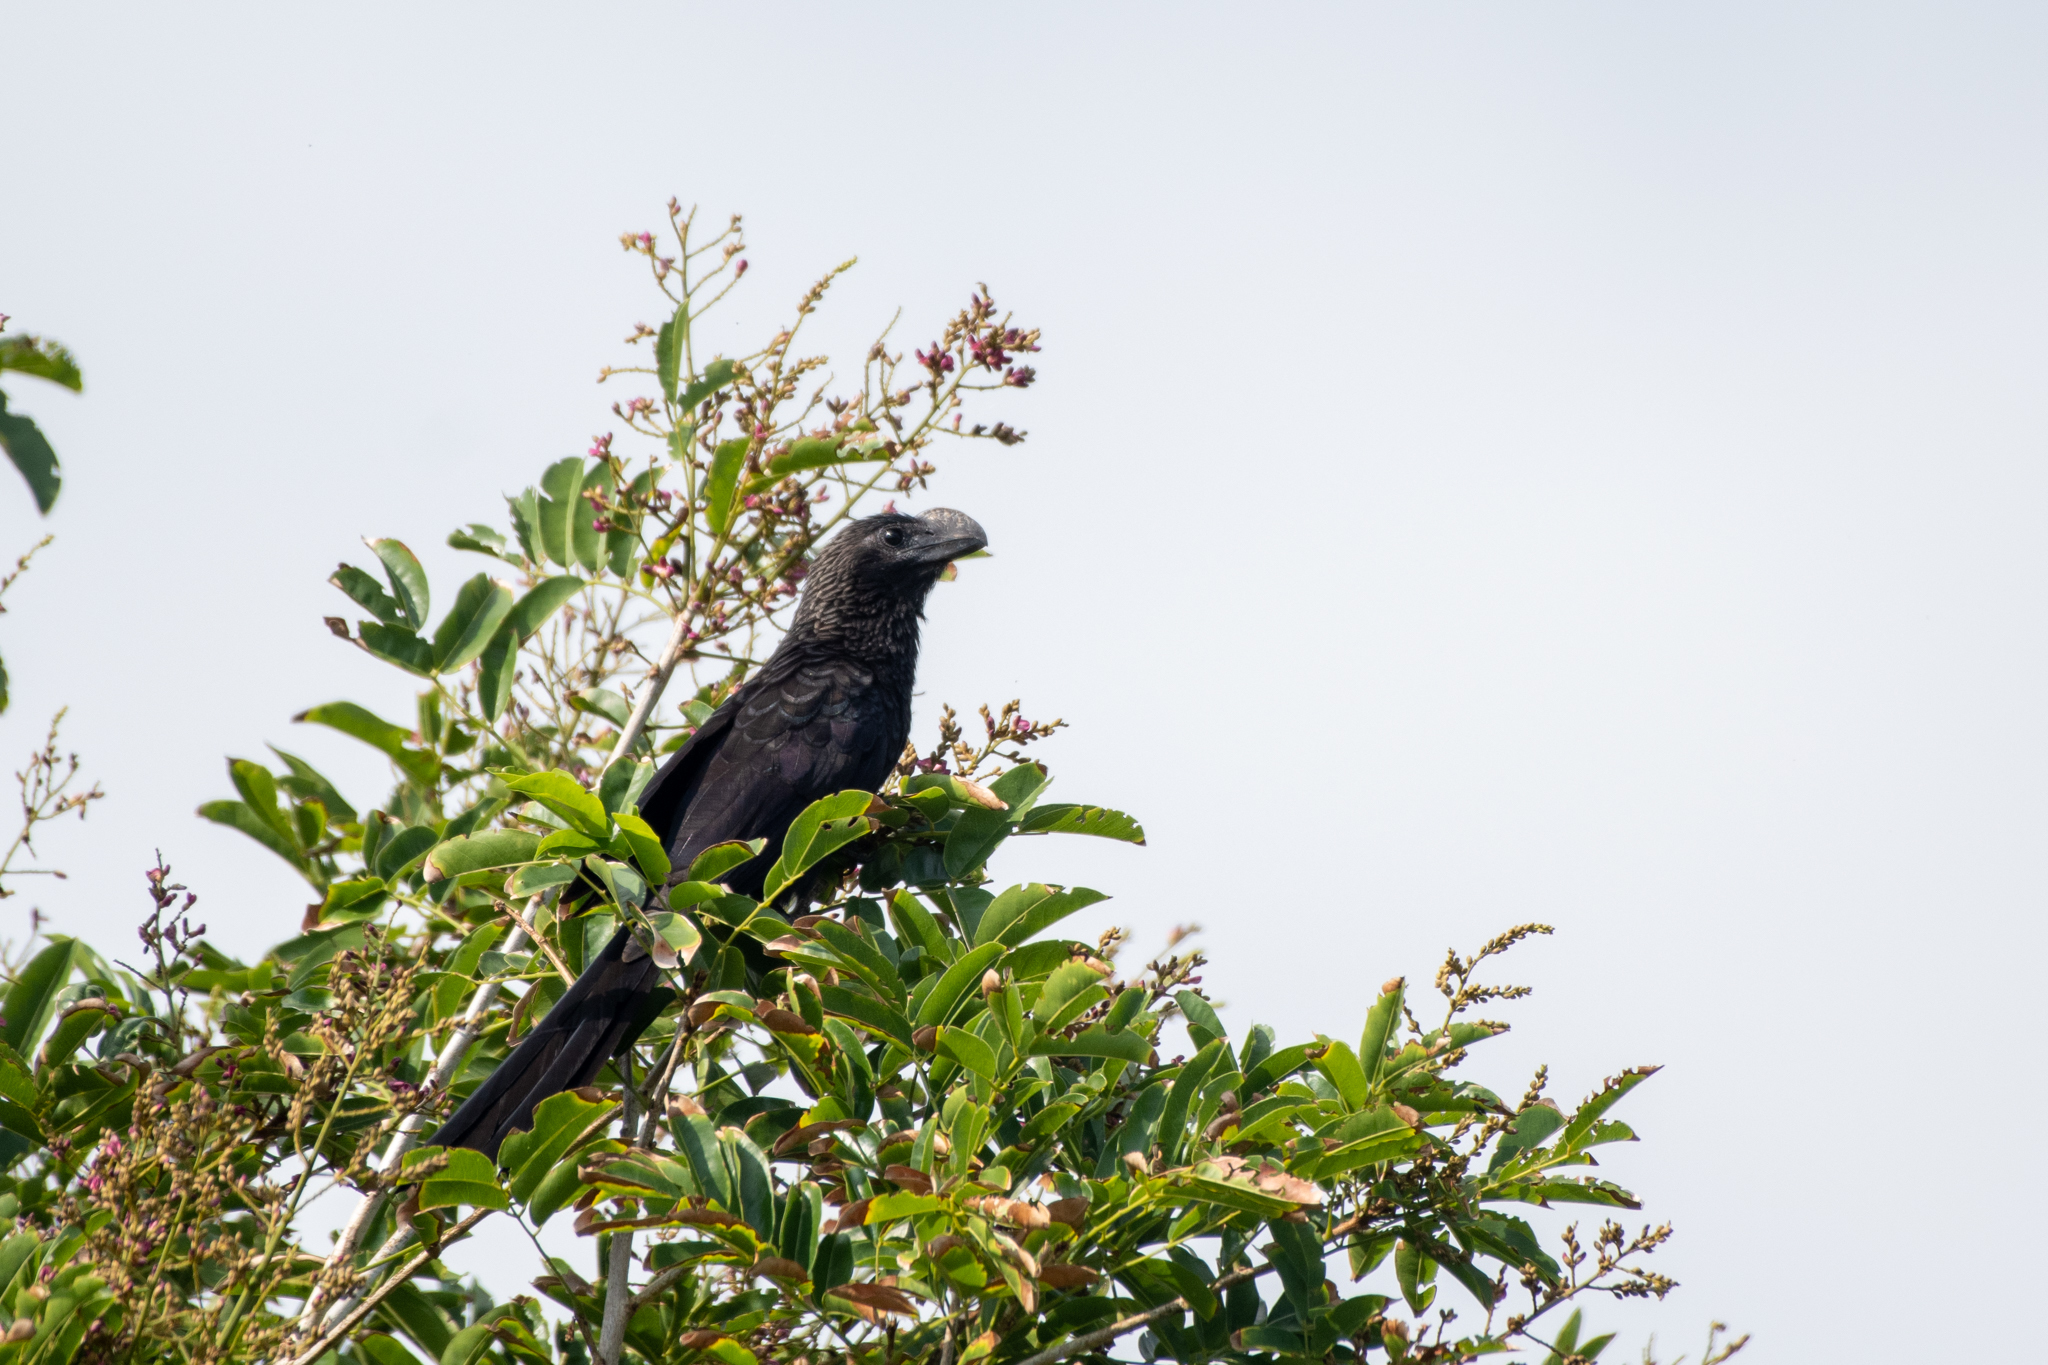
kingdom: Animalia
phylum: Chordata
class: Aves
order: Cuculiformes
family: Cuculidae
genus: Crotophaga
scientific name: Crotophaga ani
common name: Smooth-billed ani
